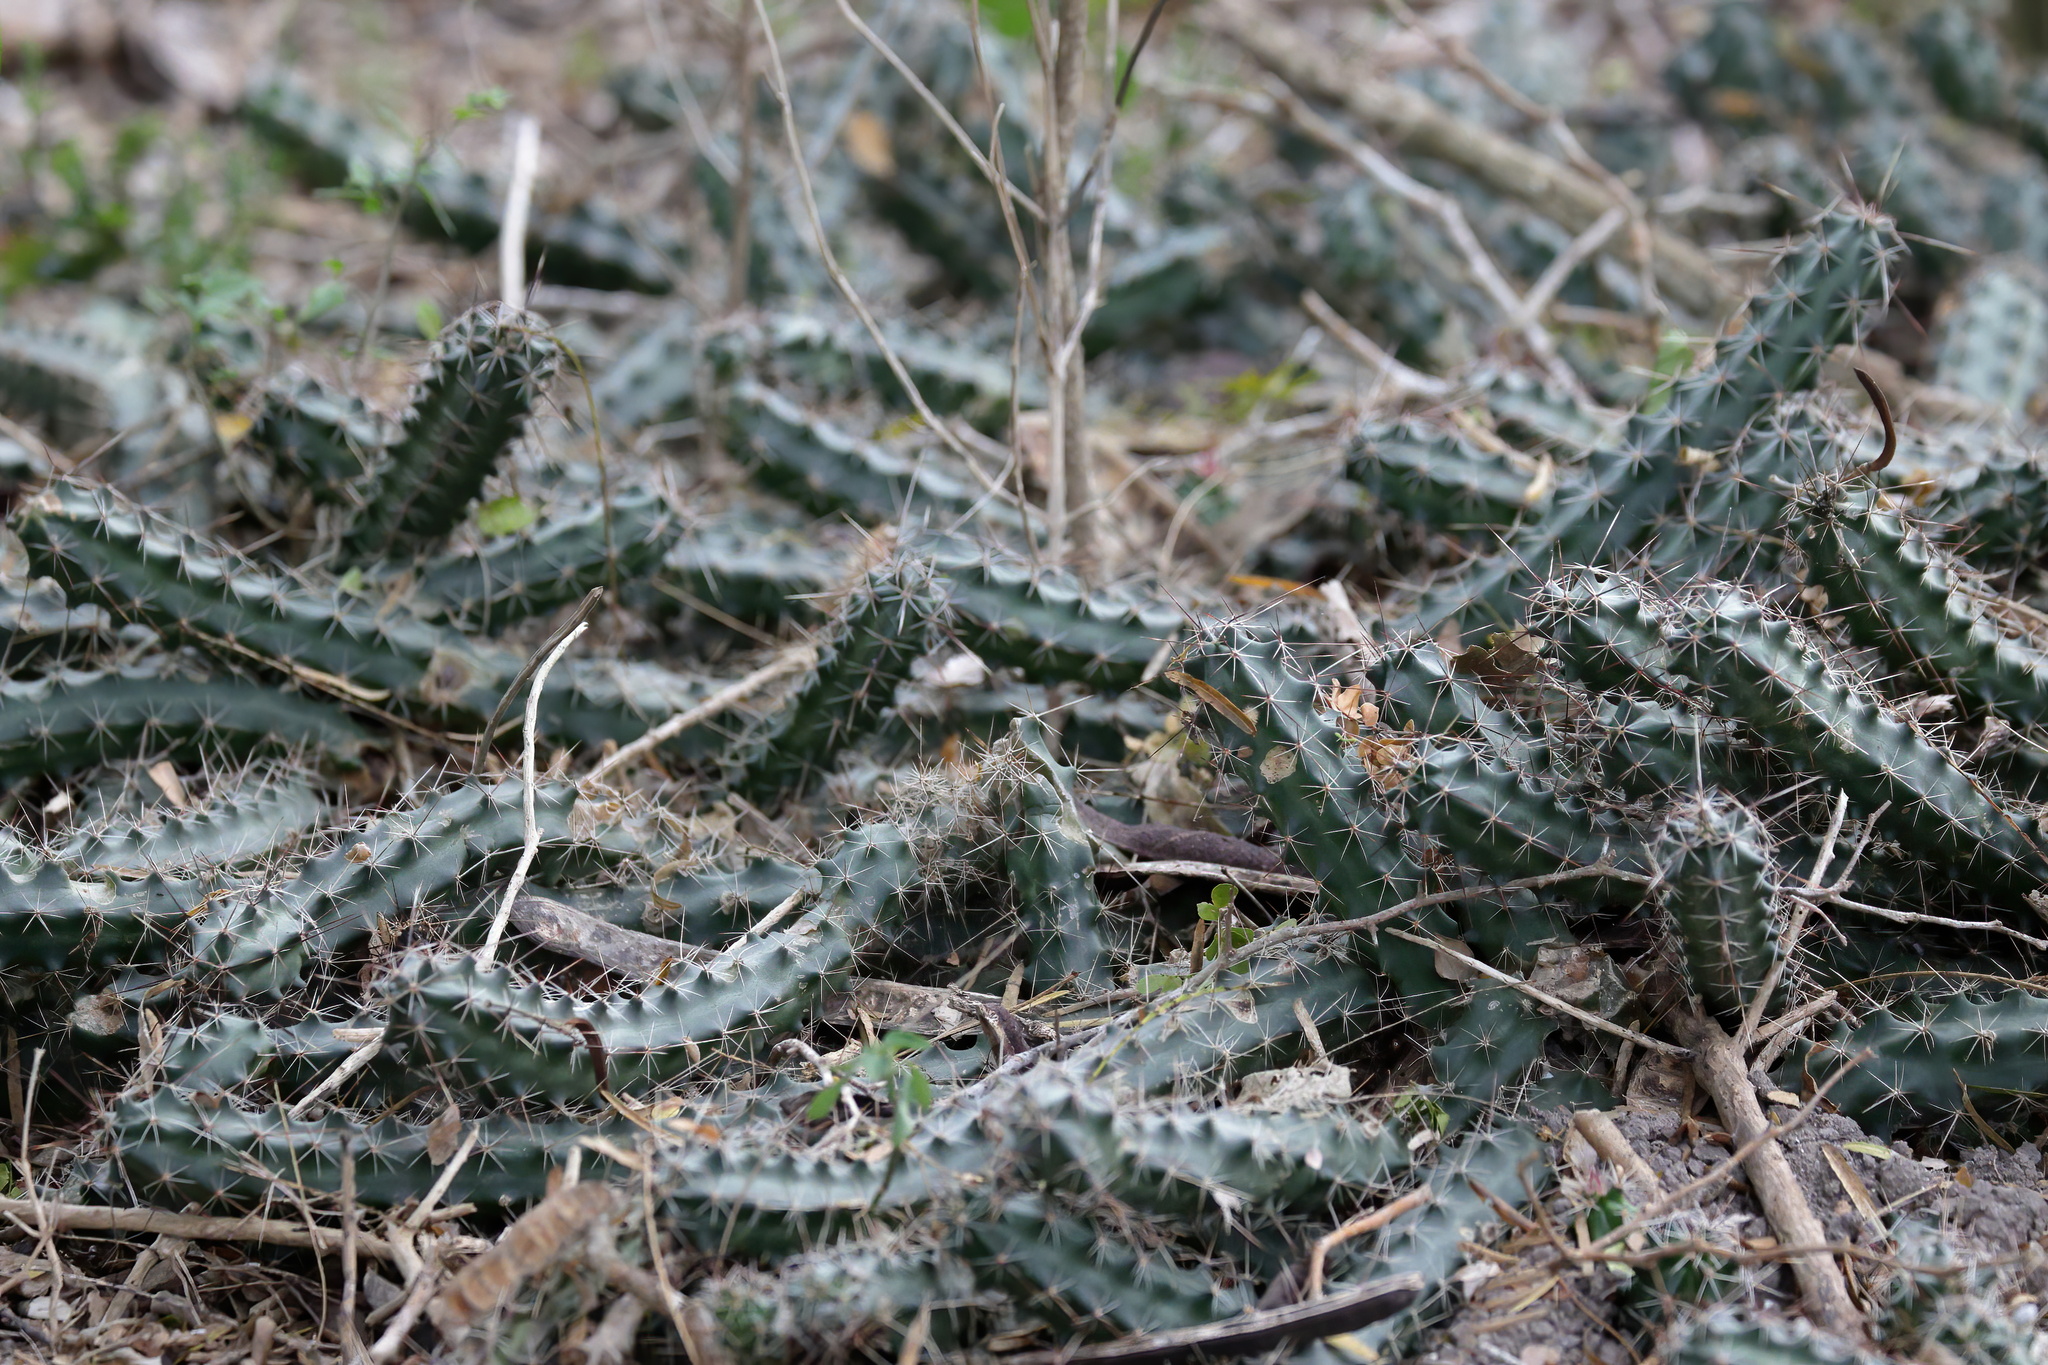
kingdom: Plantae
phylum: Tracheophyta
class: Magnoliopsida
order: Caryophyllales
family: Cactaceae
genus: Echinocereus
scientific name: Echinocereus berlandieri
